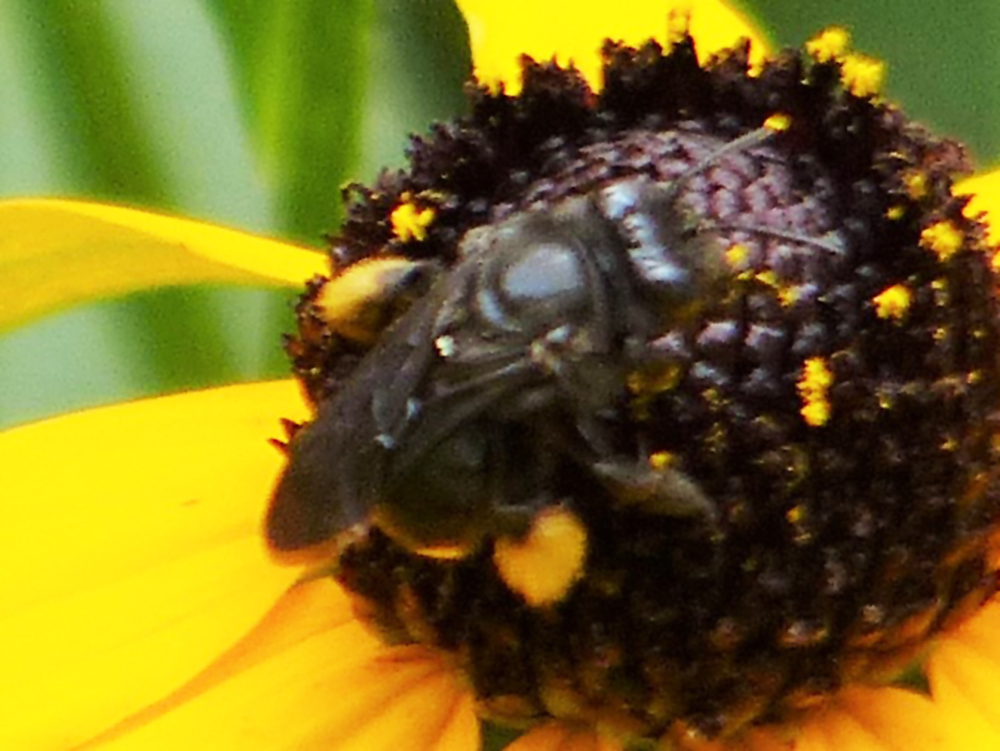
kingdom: Animalia
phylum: Arthropoda
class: Insecta
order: Hymenoptera
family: Apidae
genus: Melissodes
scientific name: Melissodes bimaculatus
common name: Two-spotted long-horned bee
